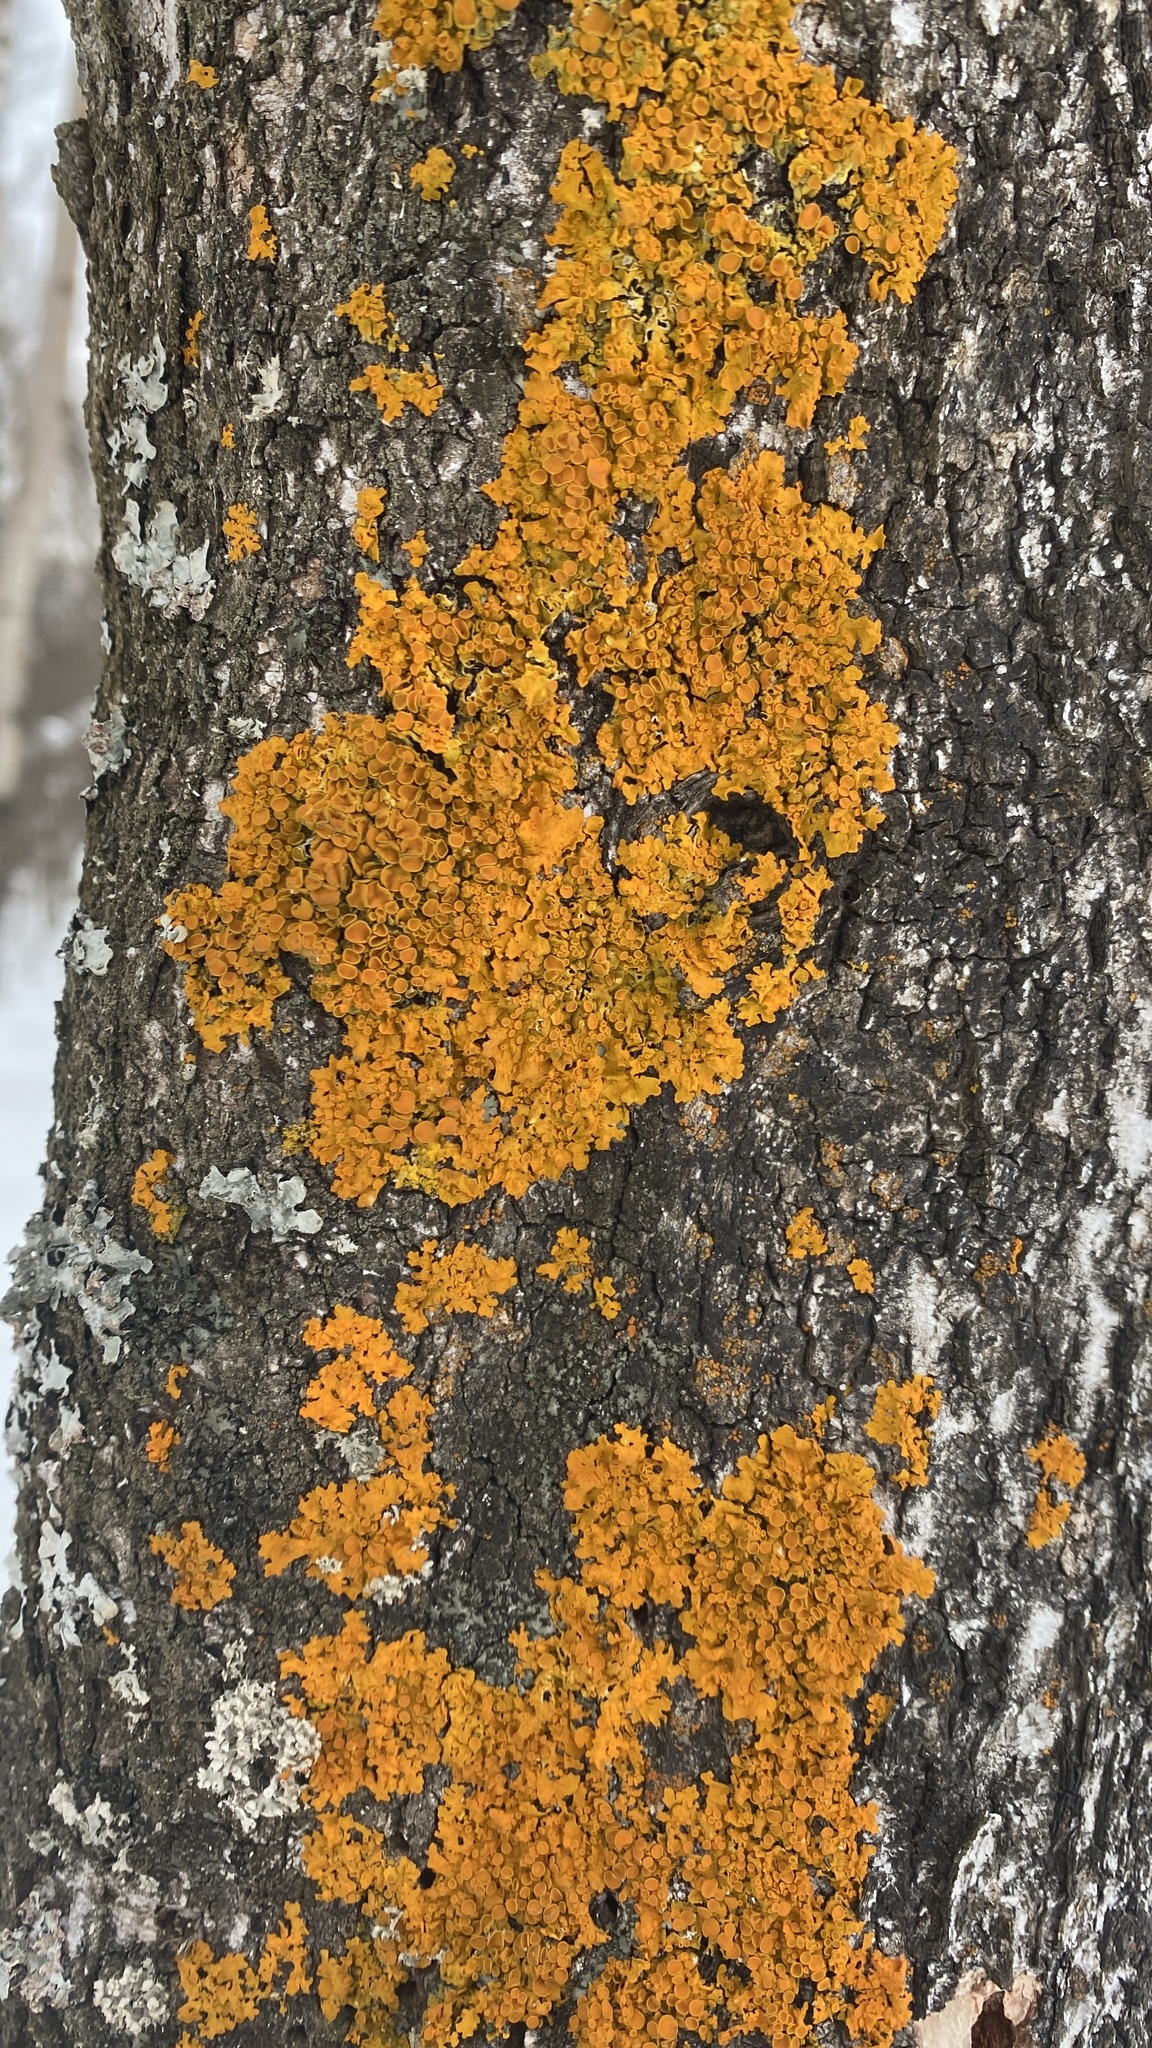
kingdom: Fungi
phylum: Ascomycota
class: Lecanoromycetes
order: Teloschistales
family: Teloschistaceae
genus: Xanthoria
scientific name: Xanthoria parietina
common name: Common orange lichen
